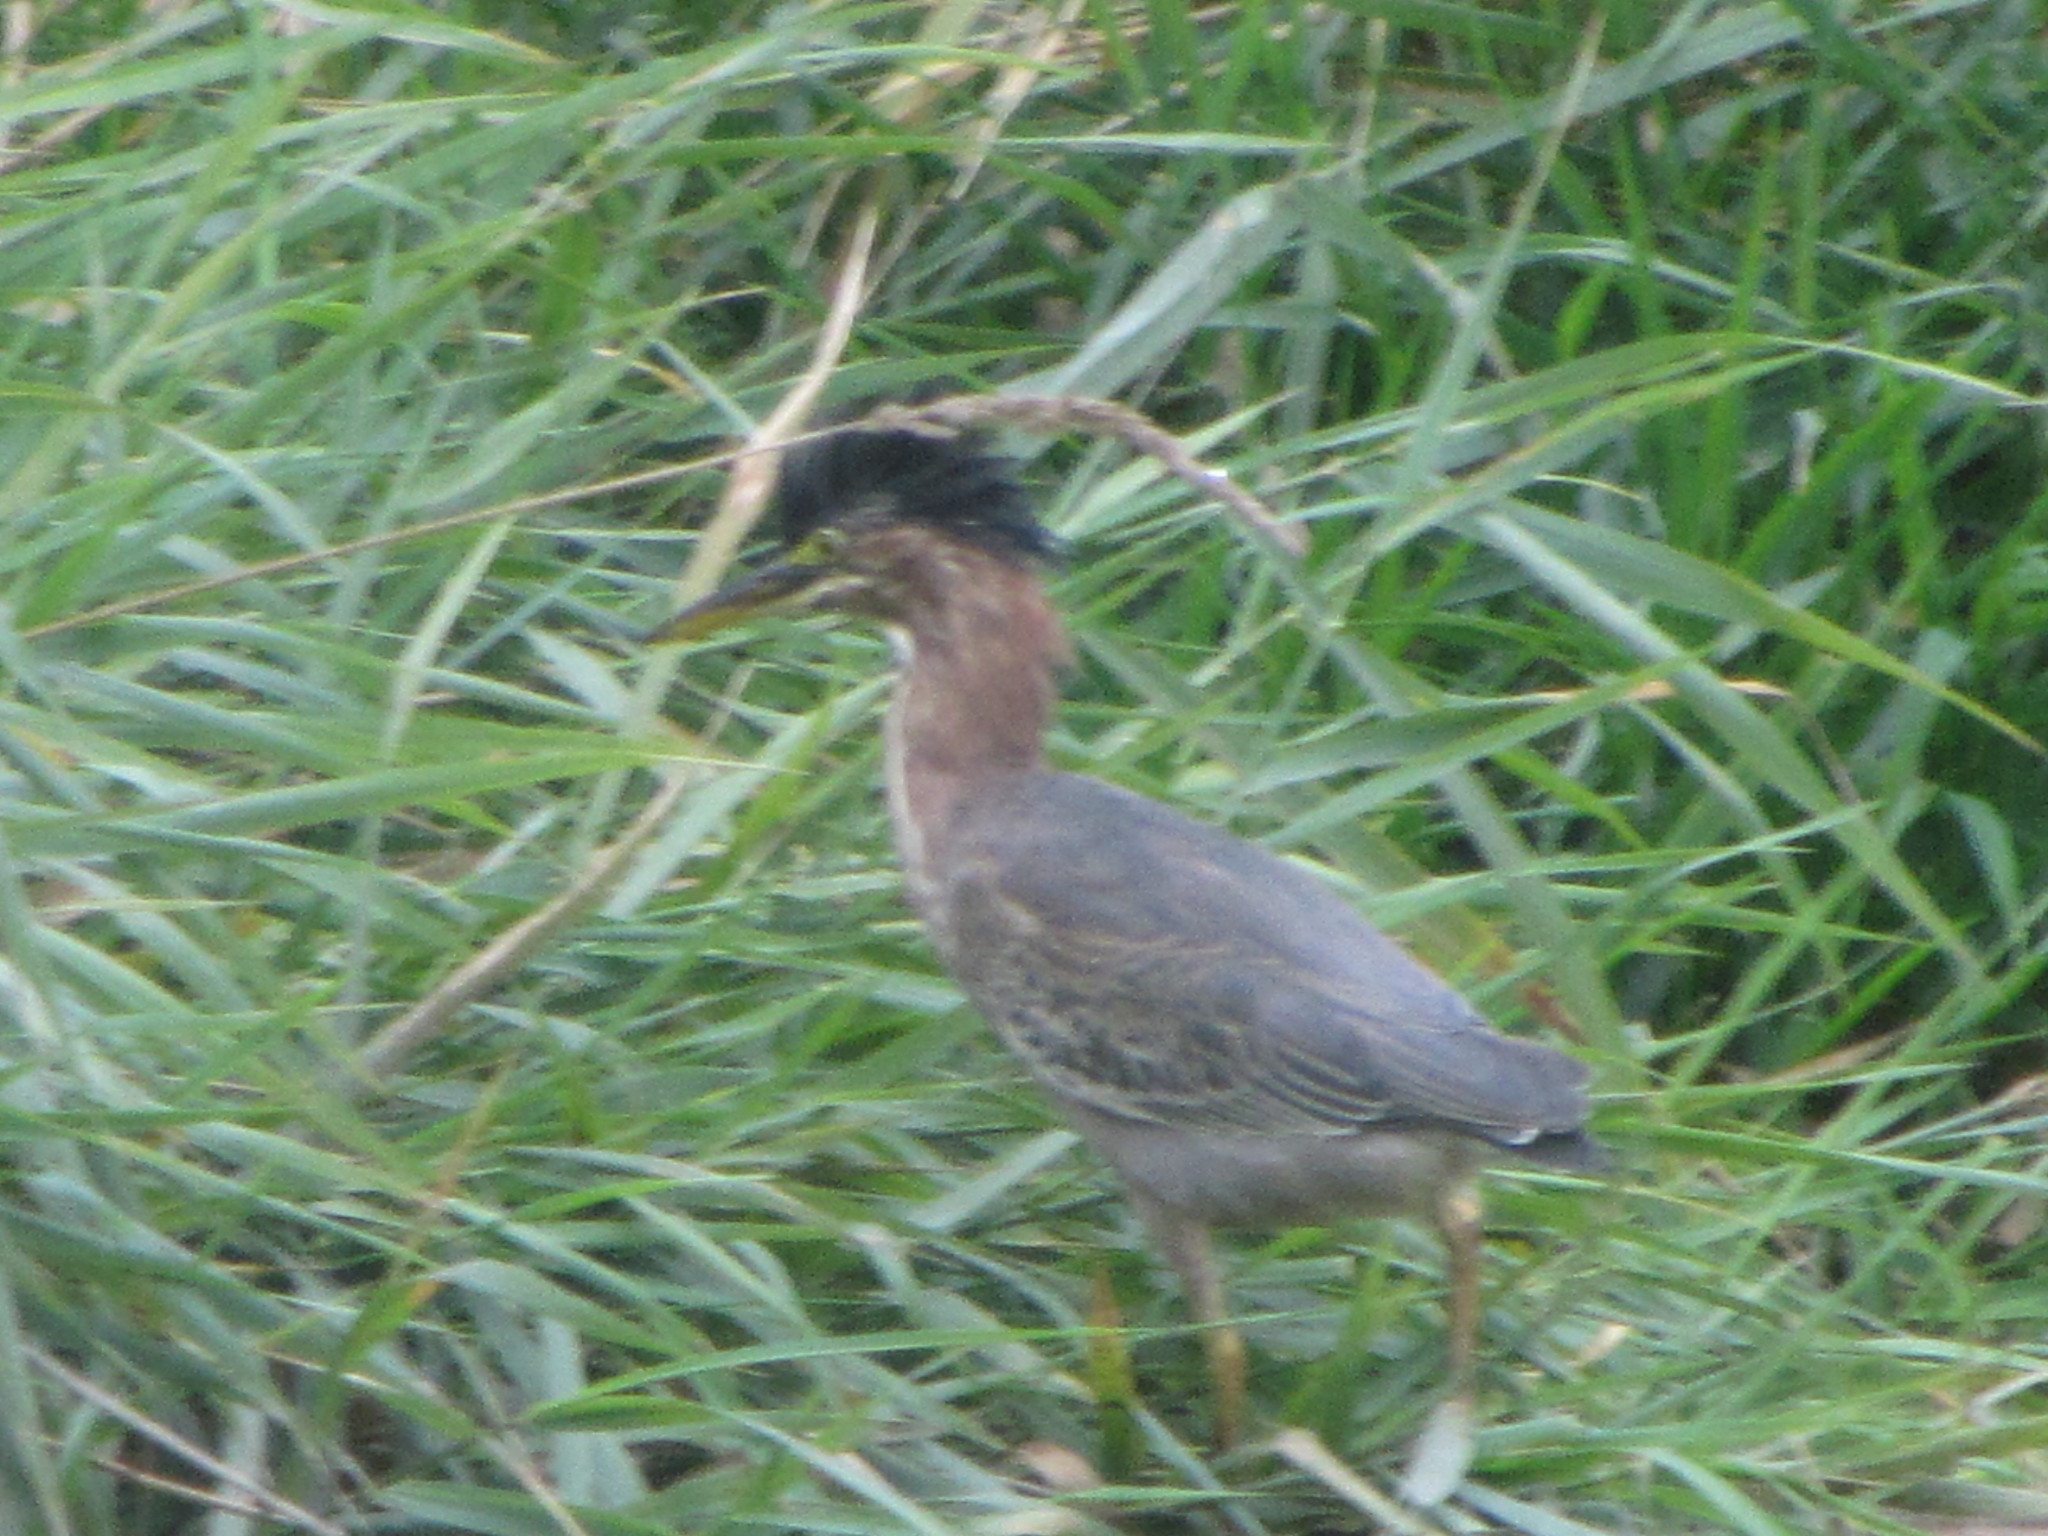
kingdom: Animalia
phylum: Chordata
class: Aves
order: Pelecaniformes
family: Ardeidae
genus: Butorides
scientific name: Butorides virescens
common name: Green heron
